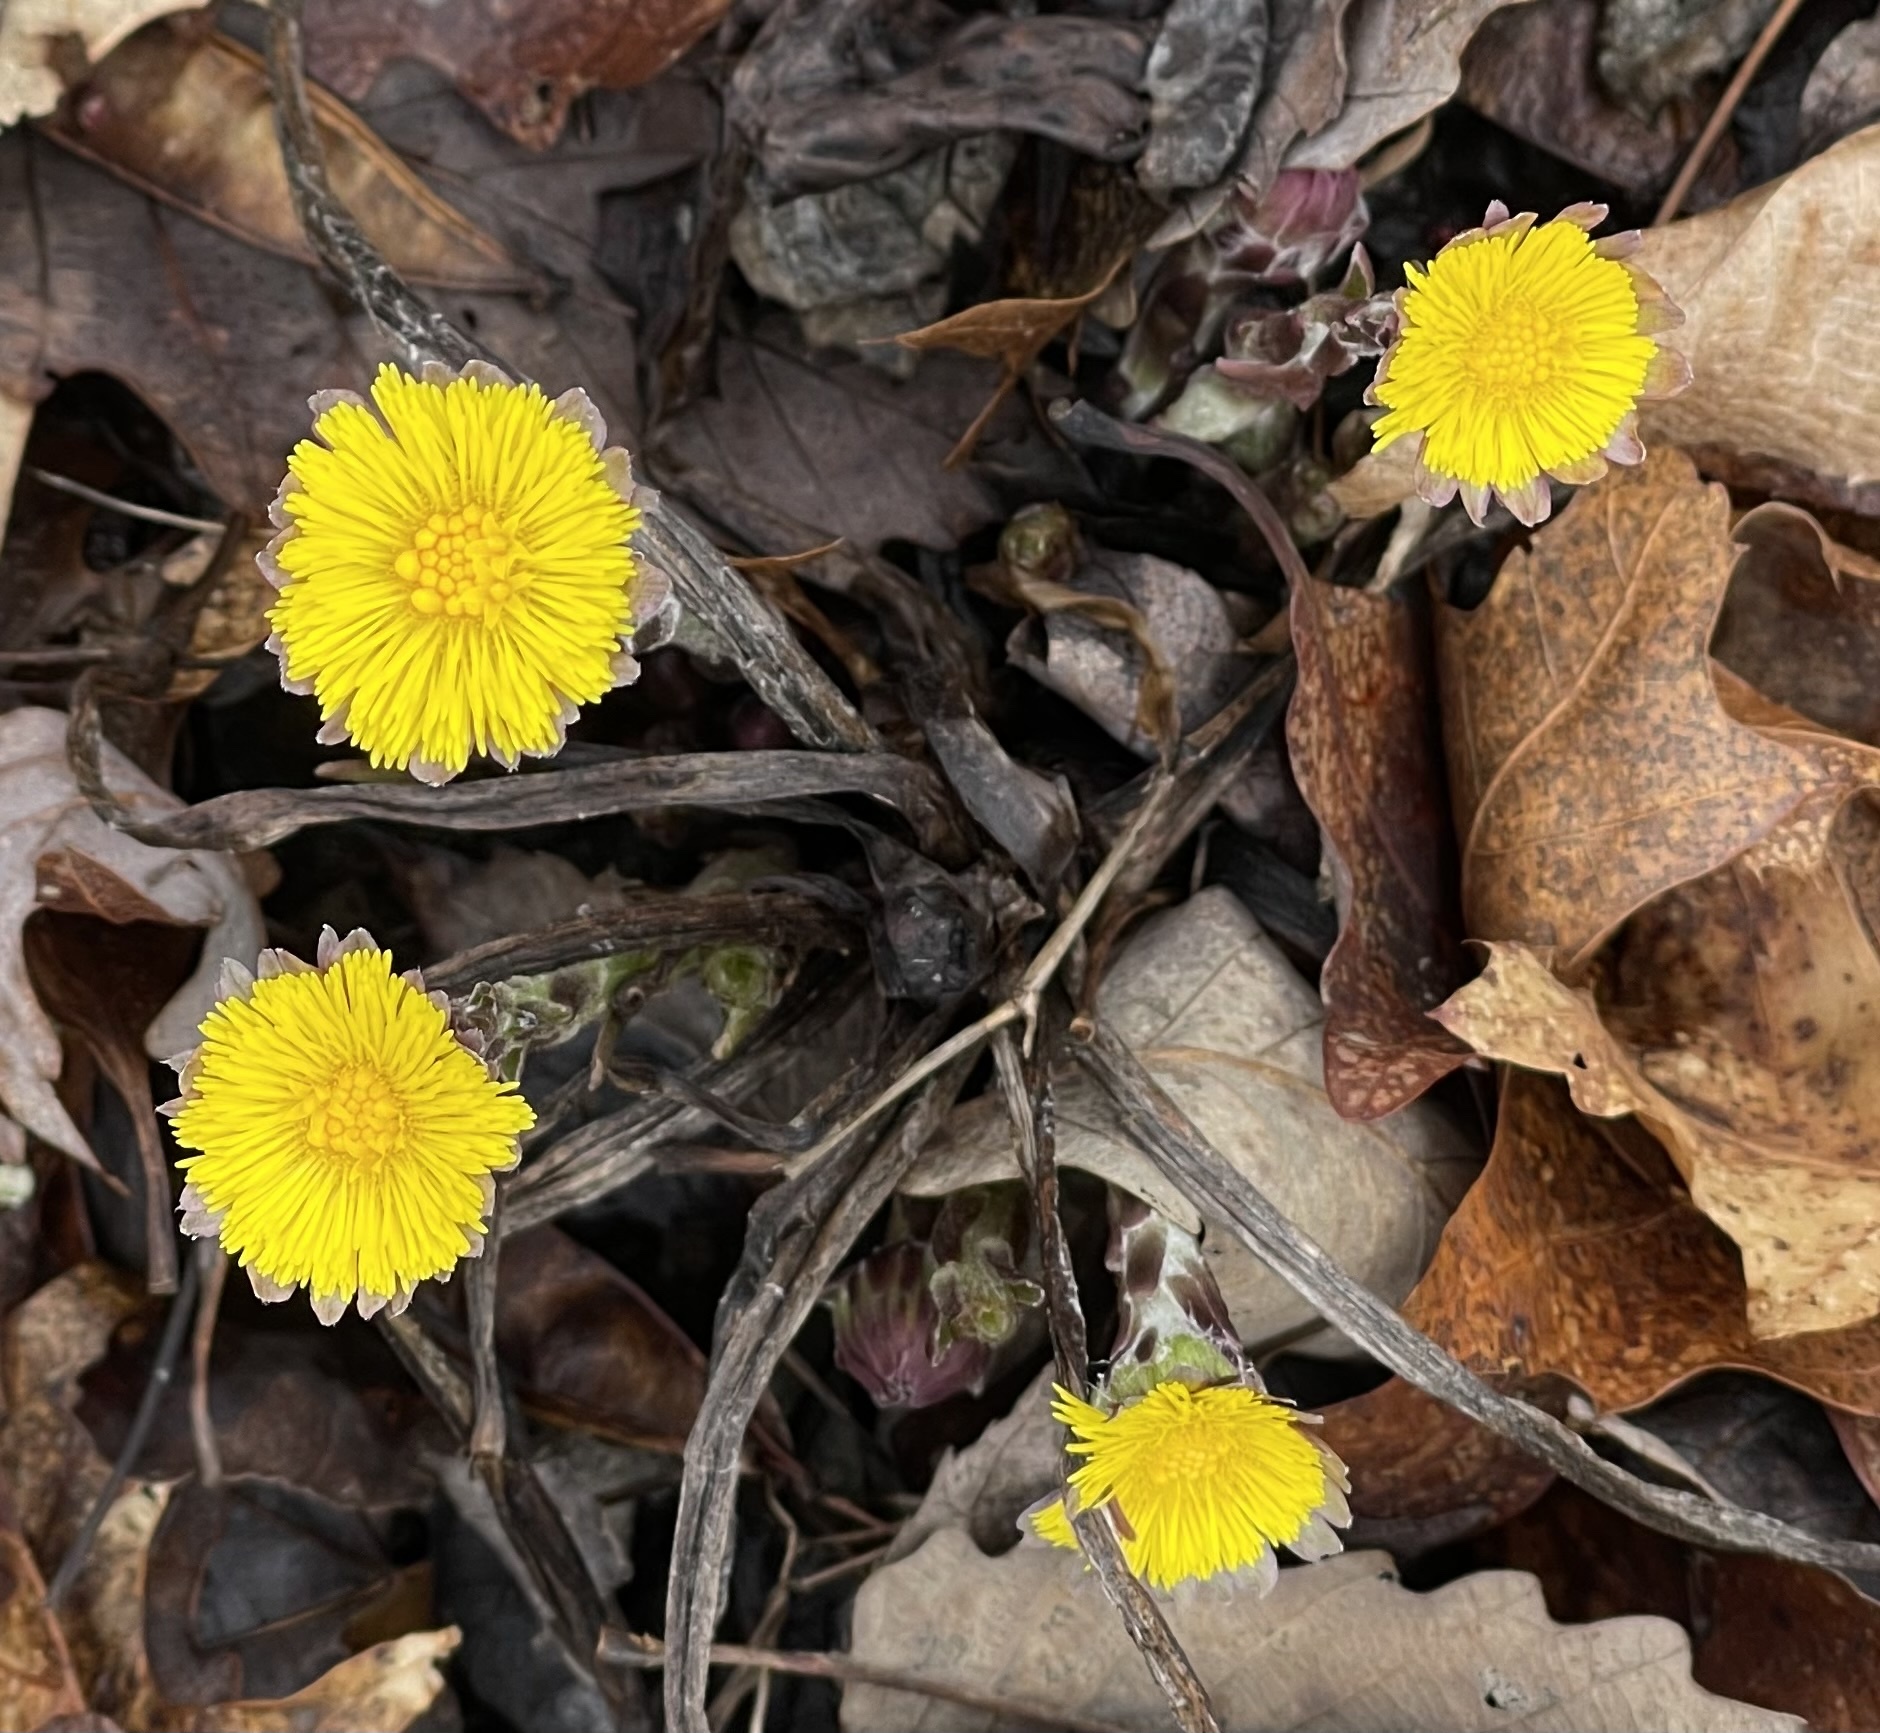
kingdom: Plantae
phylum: Tracheophyta
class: Magnoliopsida
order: Asterales
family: Asteraceae
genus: Tussilago
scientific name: Tussilago farfara
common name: Coltsfoot
